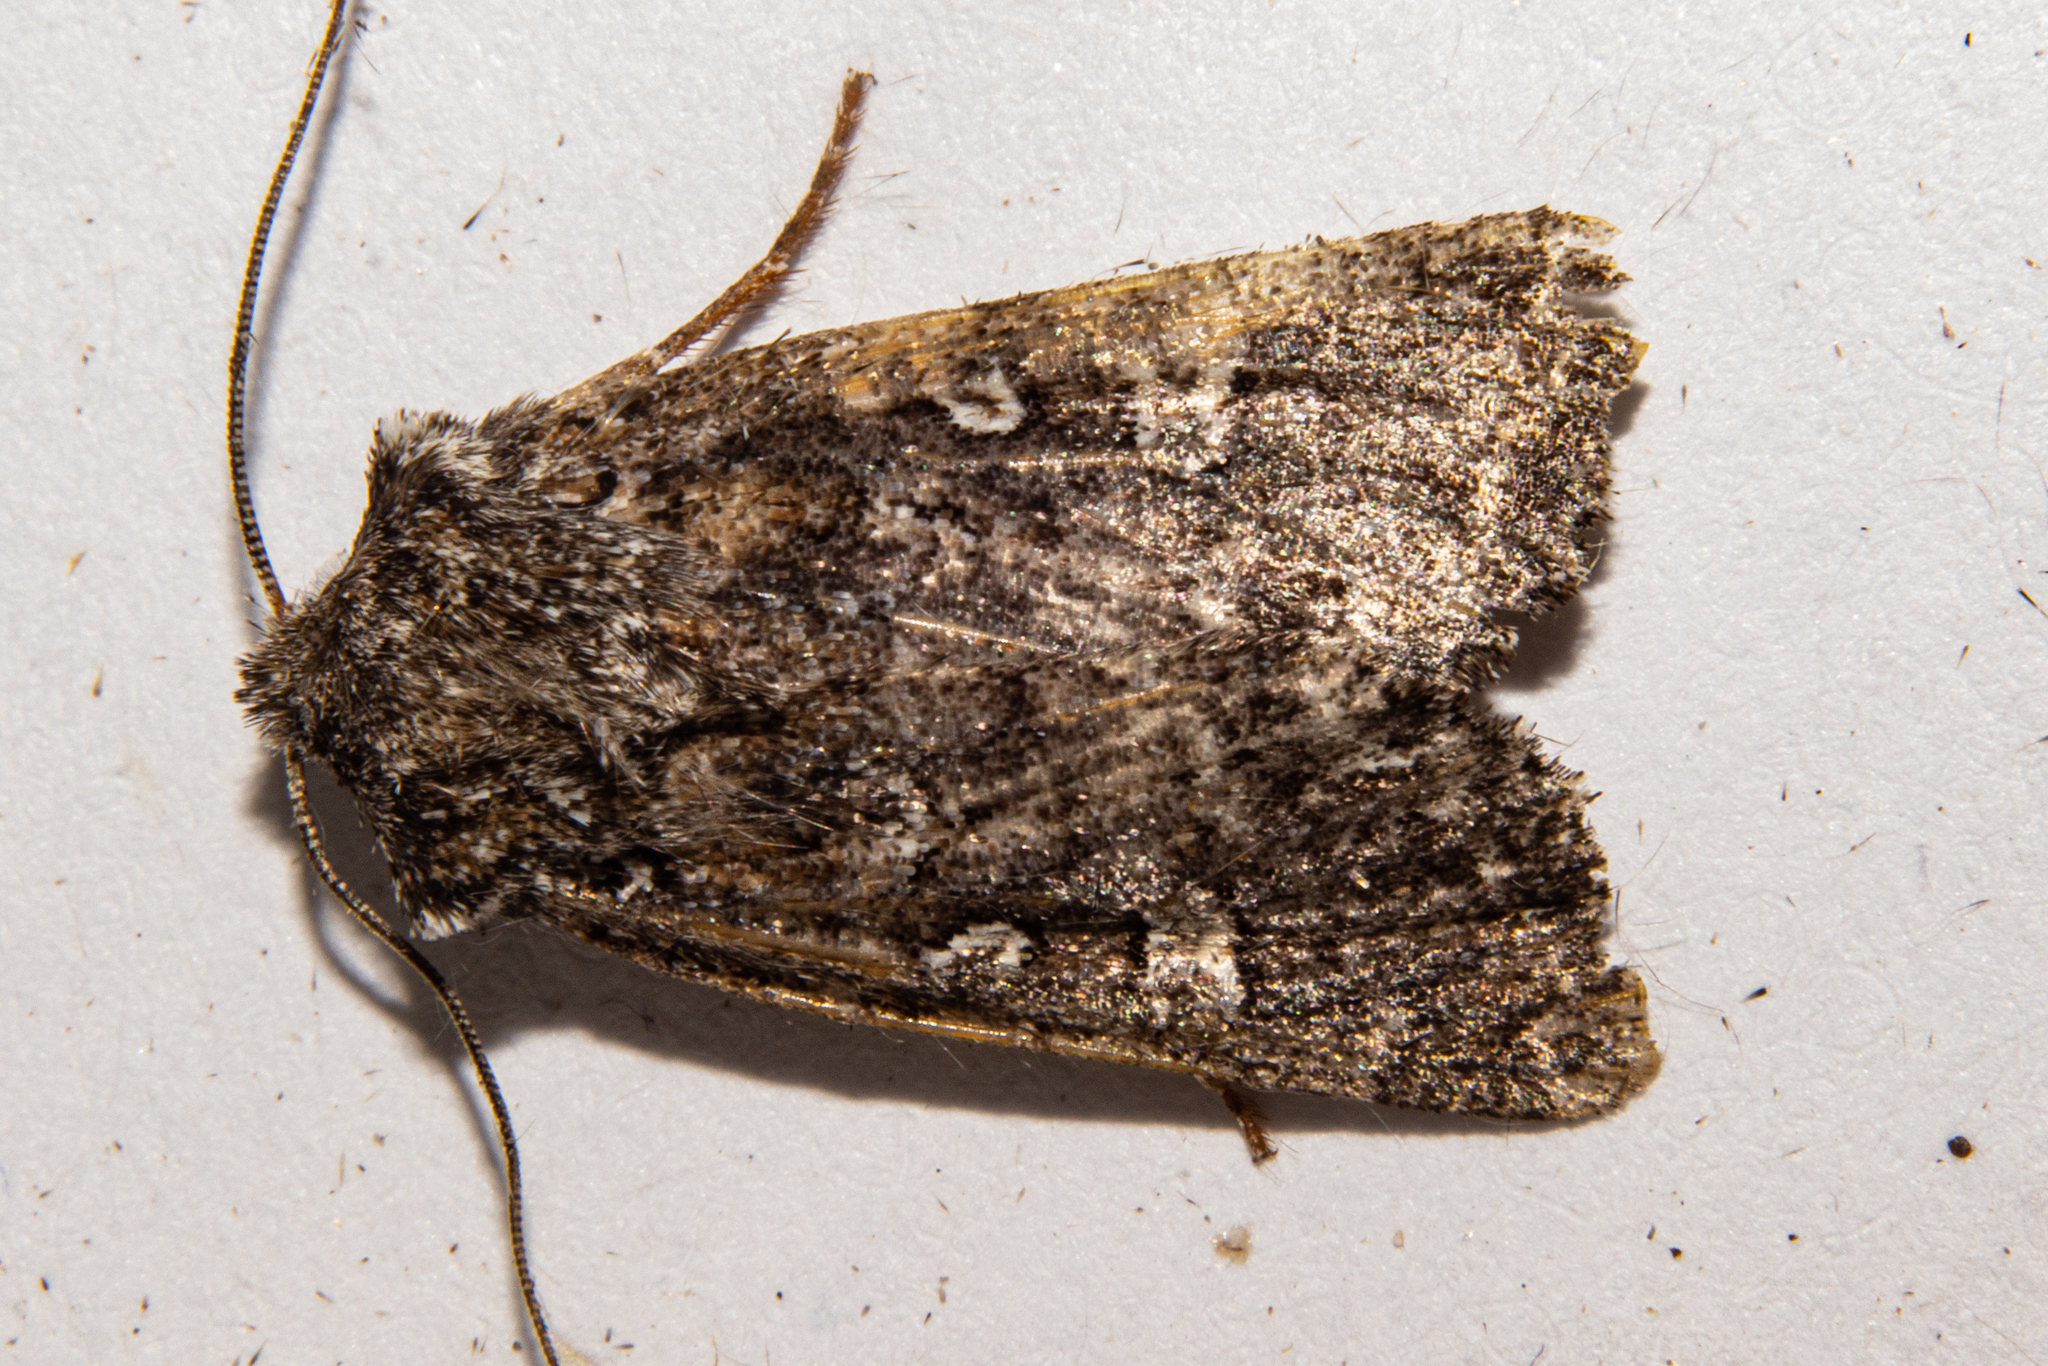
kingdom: Animalia
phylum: Arthropoda
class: Insecta
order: Lepidoptera
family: Noctuidae
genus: Ichneutica
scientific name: Ichneutica lithias
